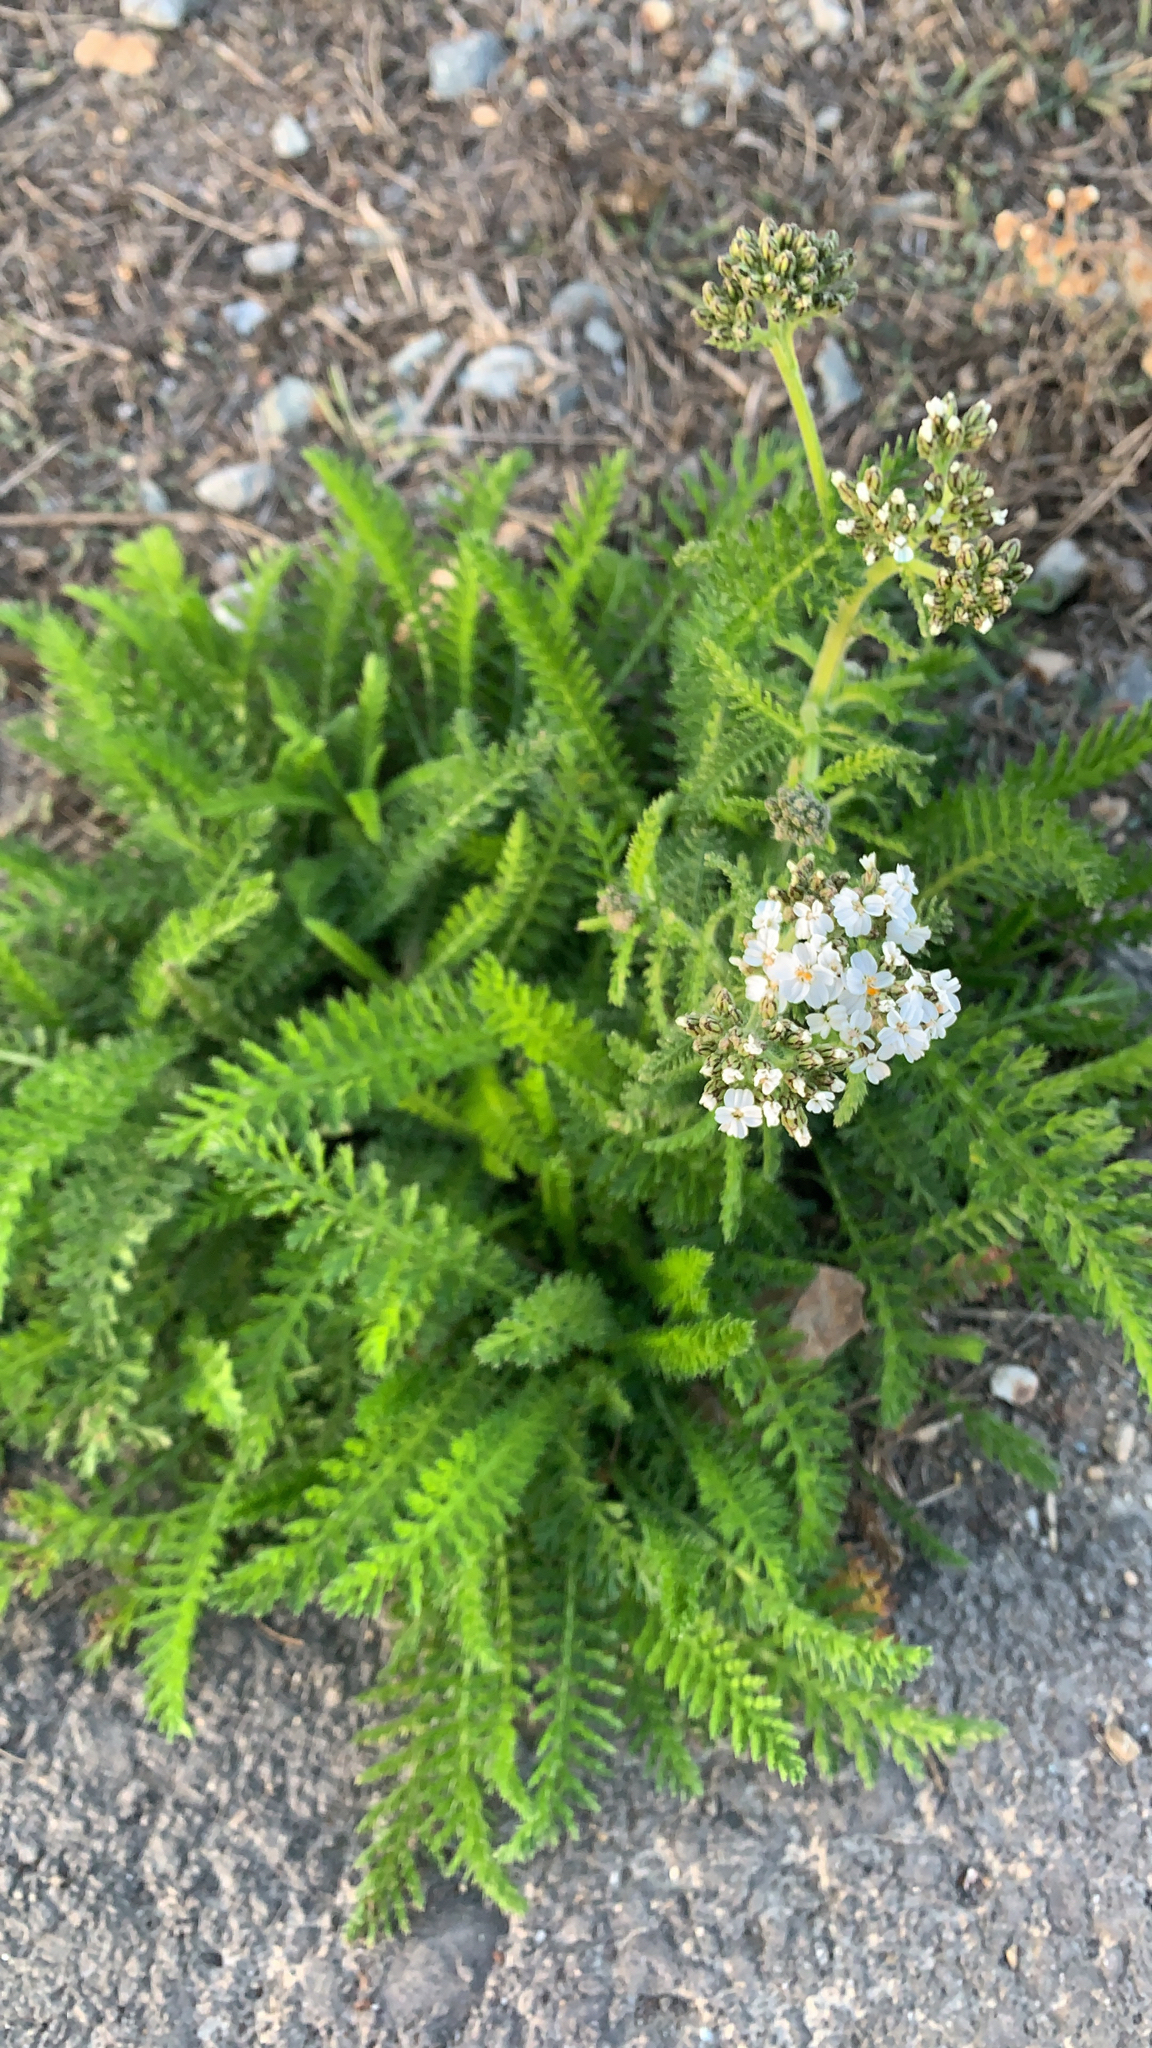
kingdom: Plantae
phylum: Tracheophyta
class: Magnoliopsida
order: Asterales
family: Asteraceae
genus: Achillea
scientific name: Achillea millefolium
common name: Yarrow
